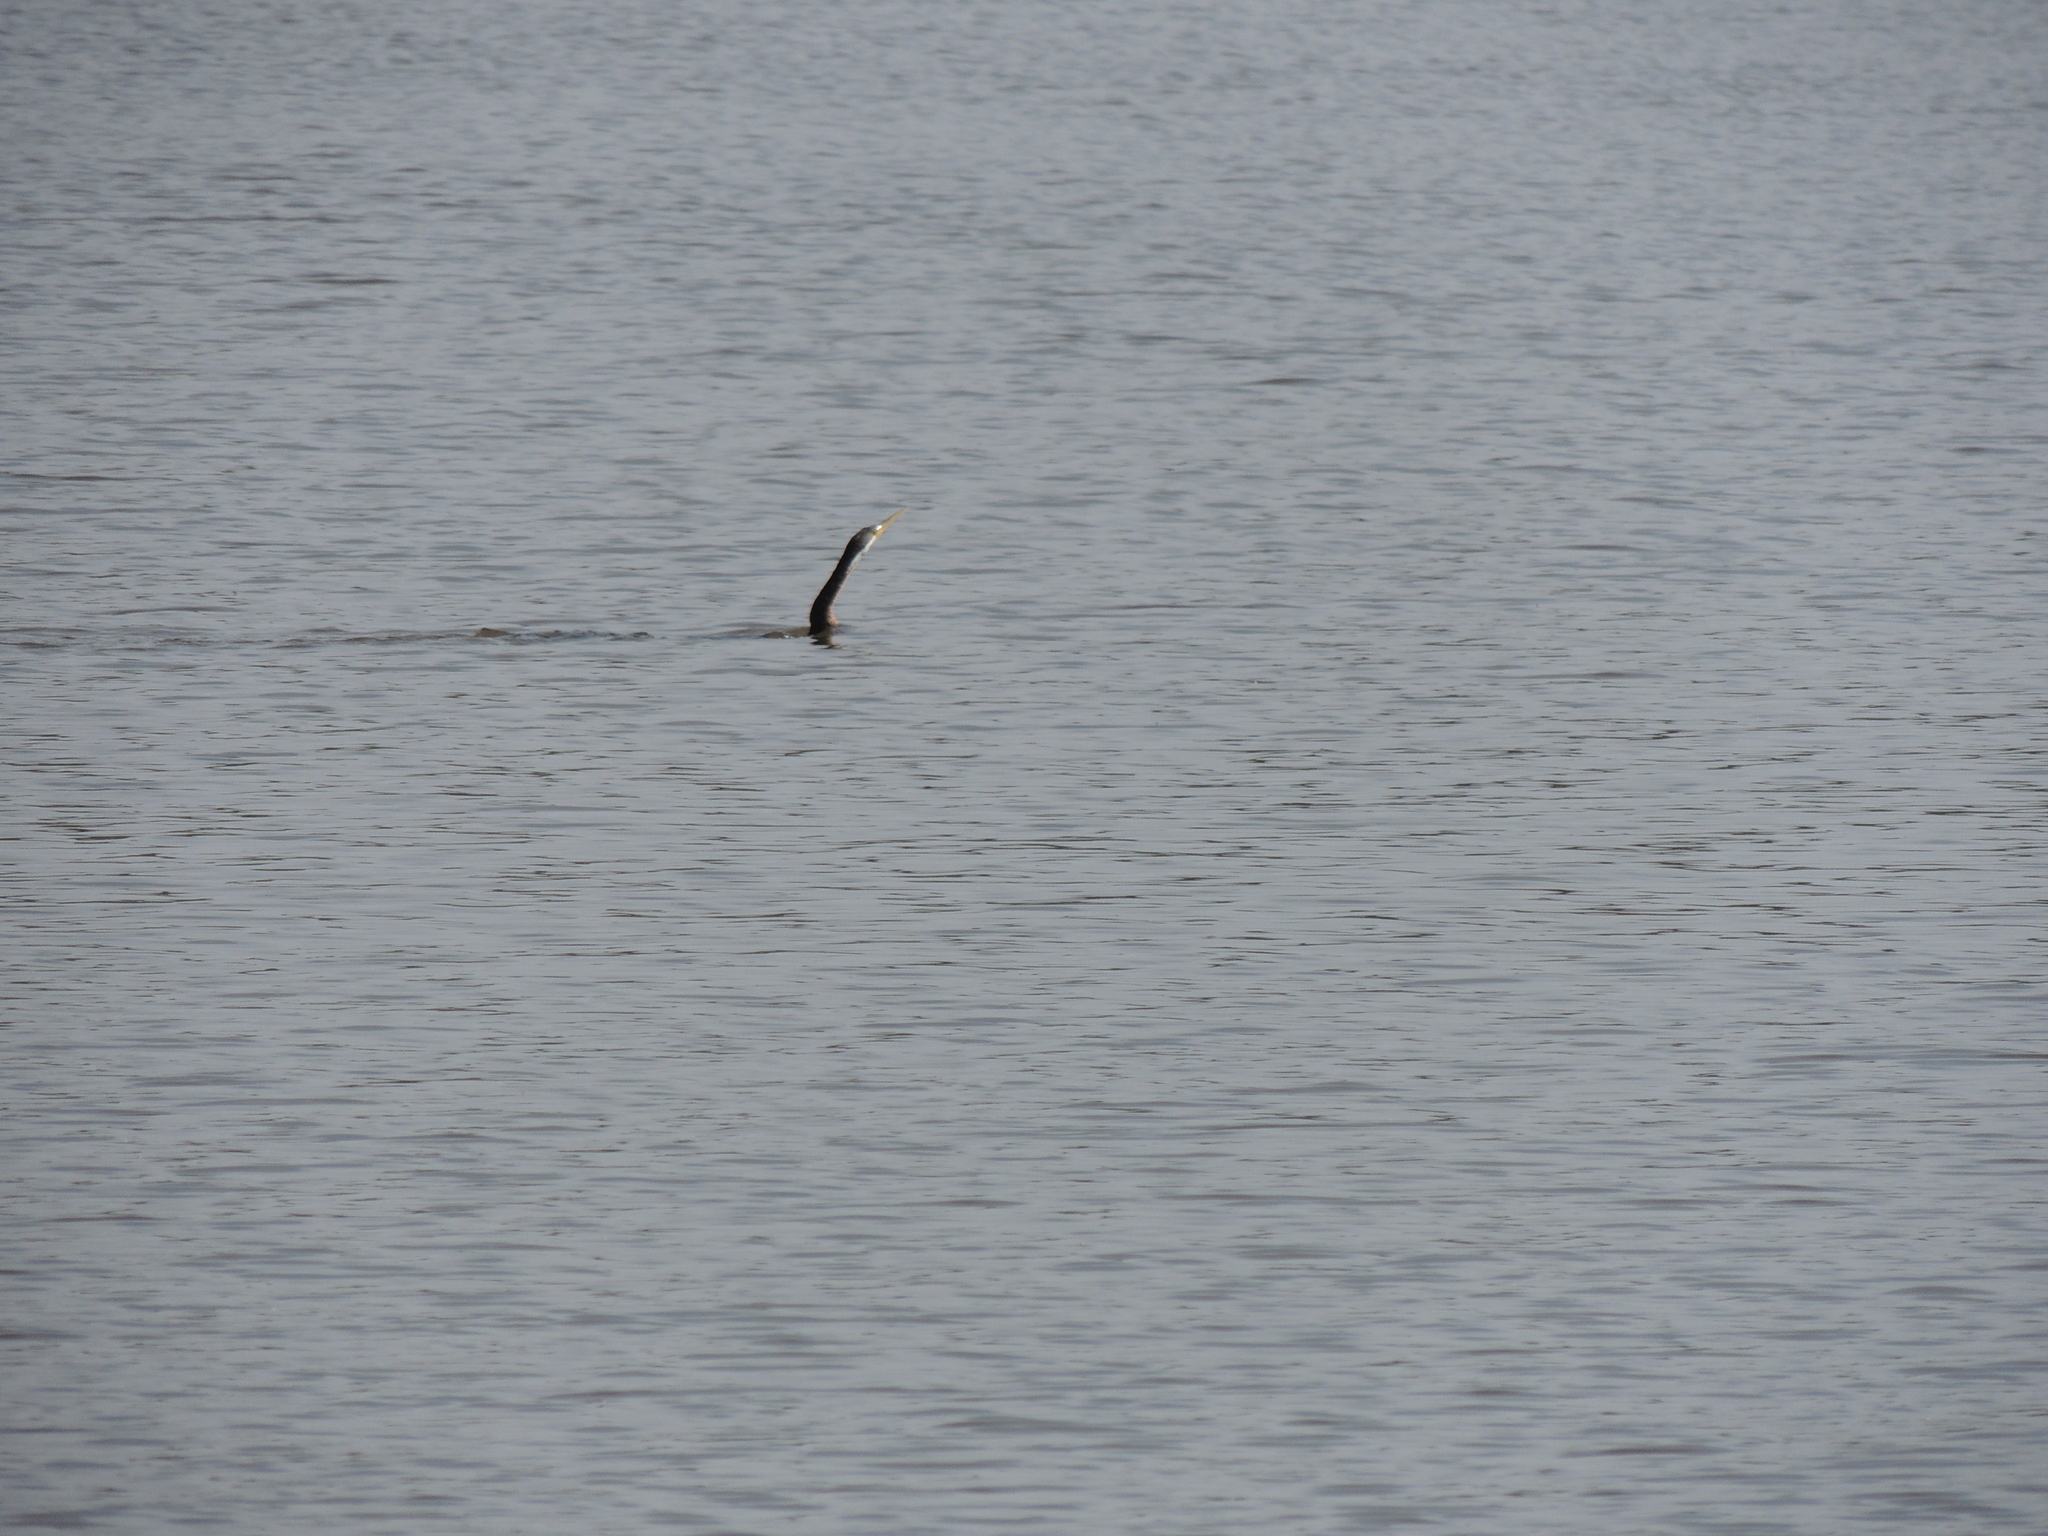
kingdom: Animalia
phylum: Chordata
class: Aves
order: Suliformes
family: Anhingidae
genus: Anhinga
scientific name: Anhinga novaehollandiae
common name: Australasian darter
